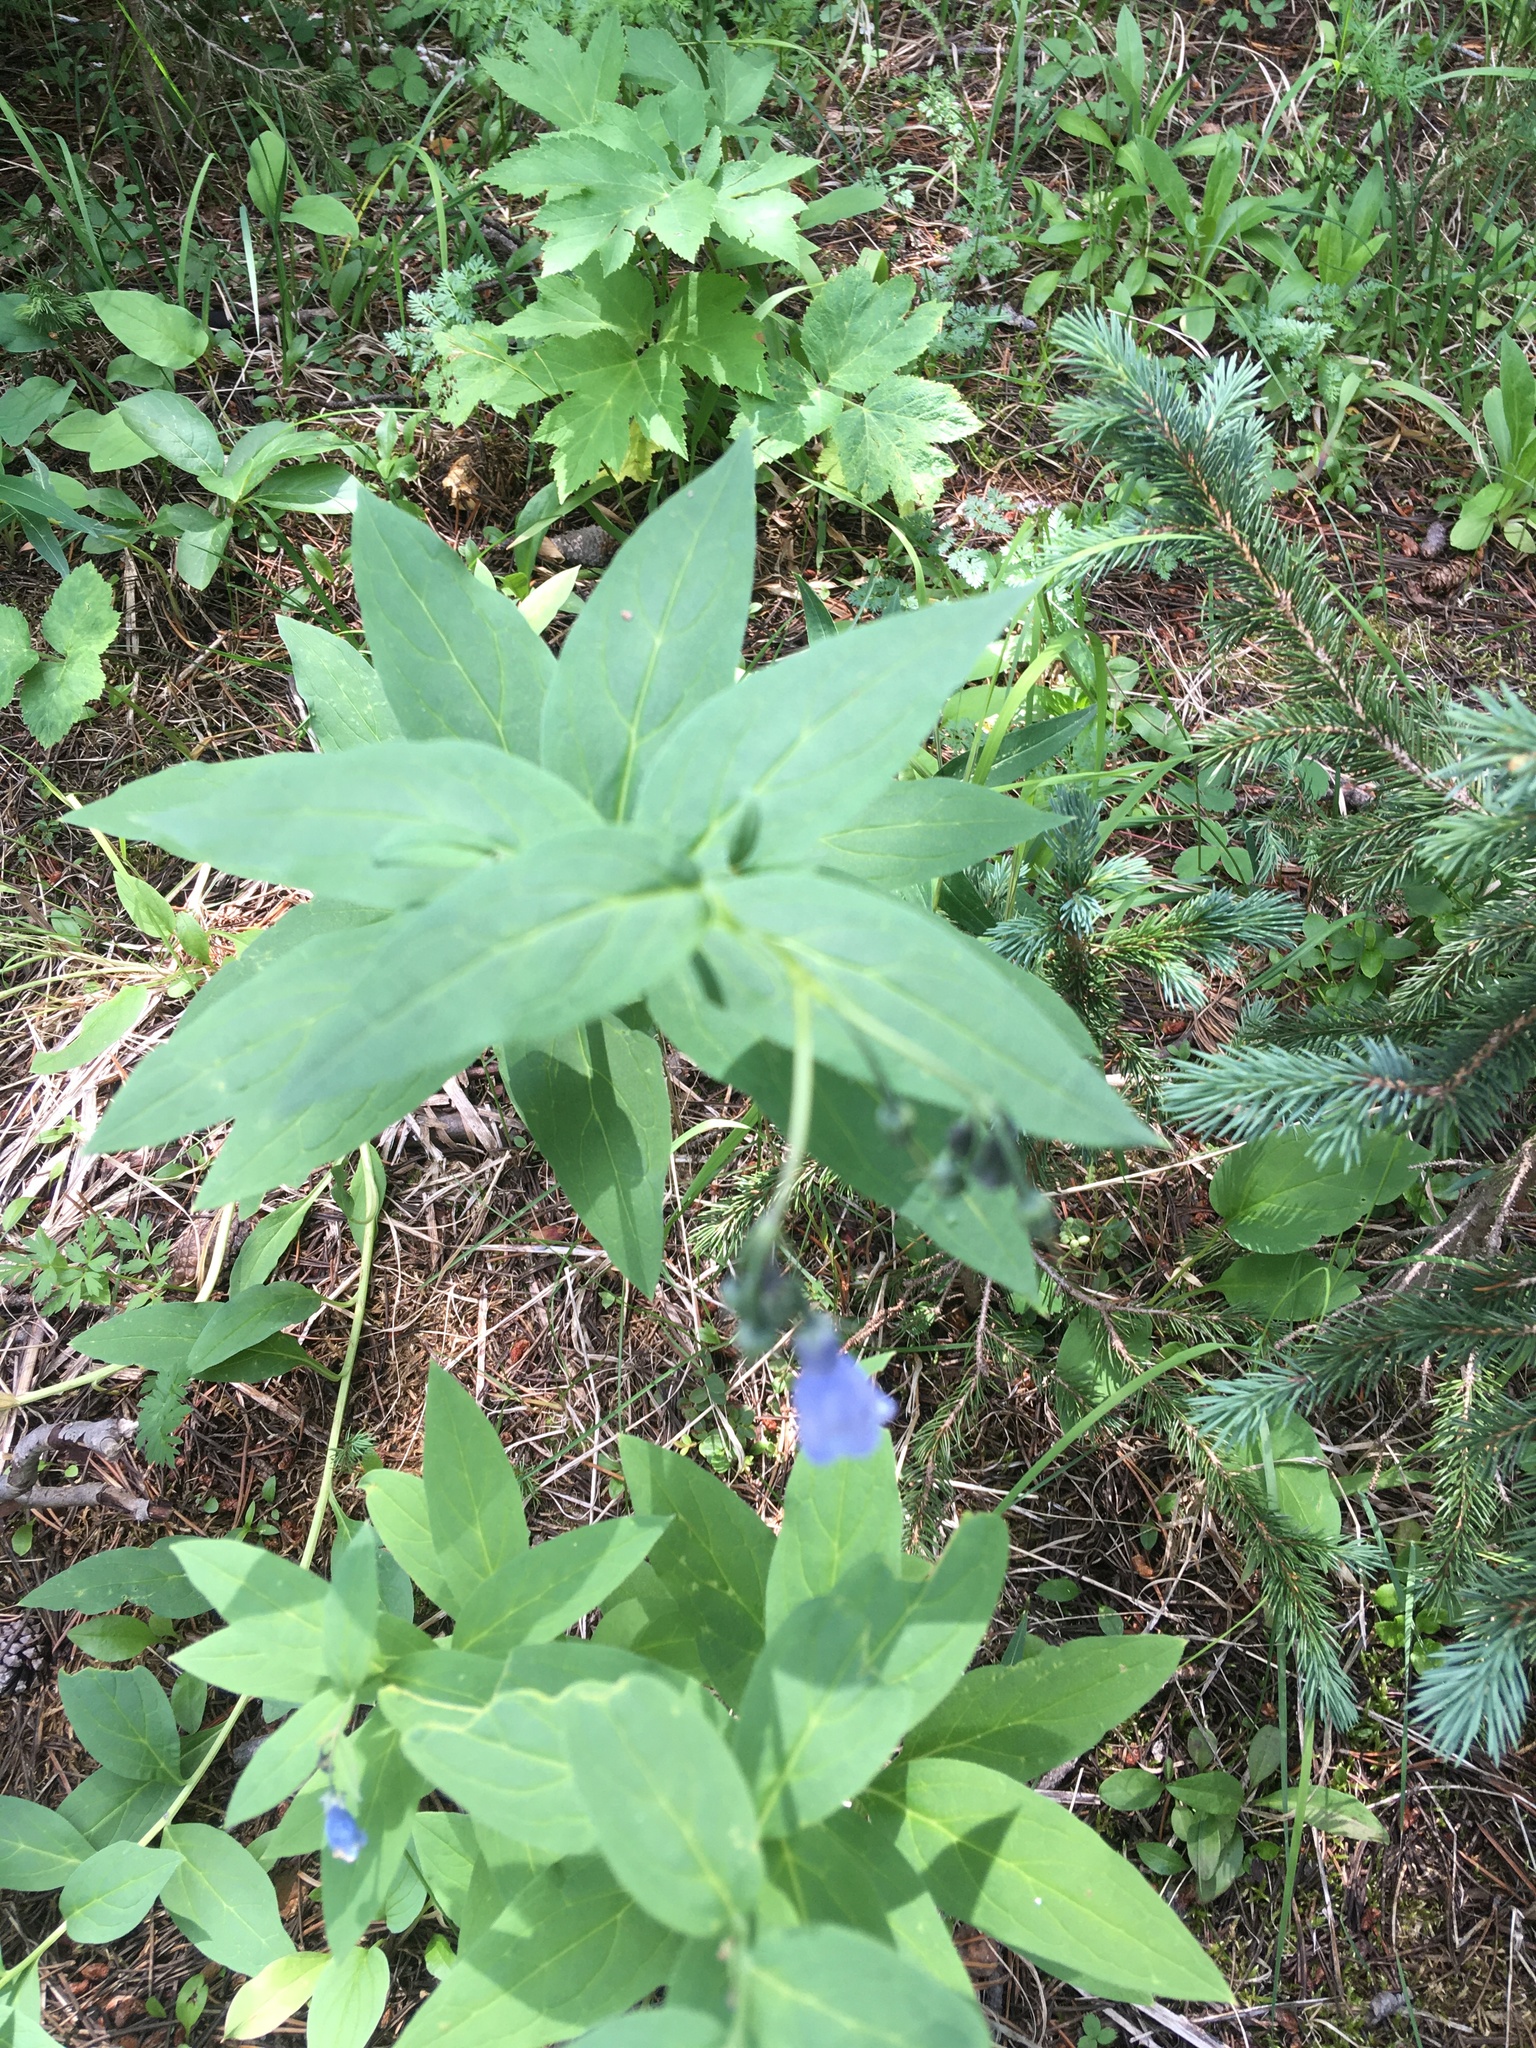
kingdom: Plantae
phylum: Tracheophyta
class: Magnoliopsida
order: Boraginales
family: Boraginaceae
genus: Mertensia
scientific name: Mertensia ciliata
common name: Tall chiming-bells
